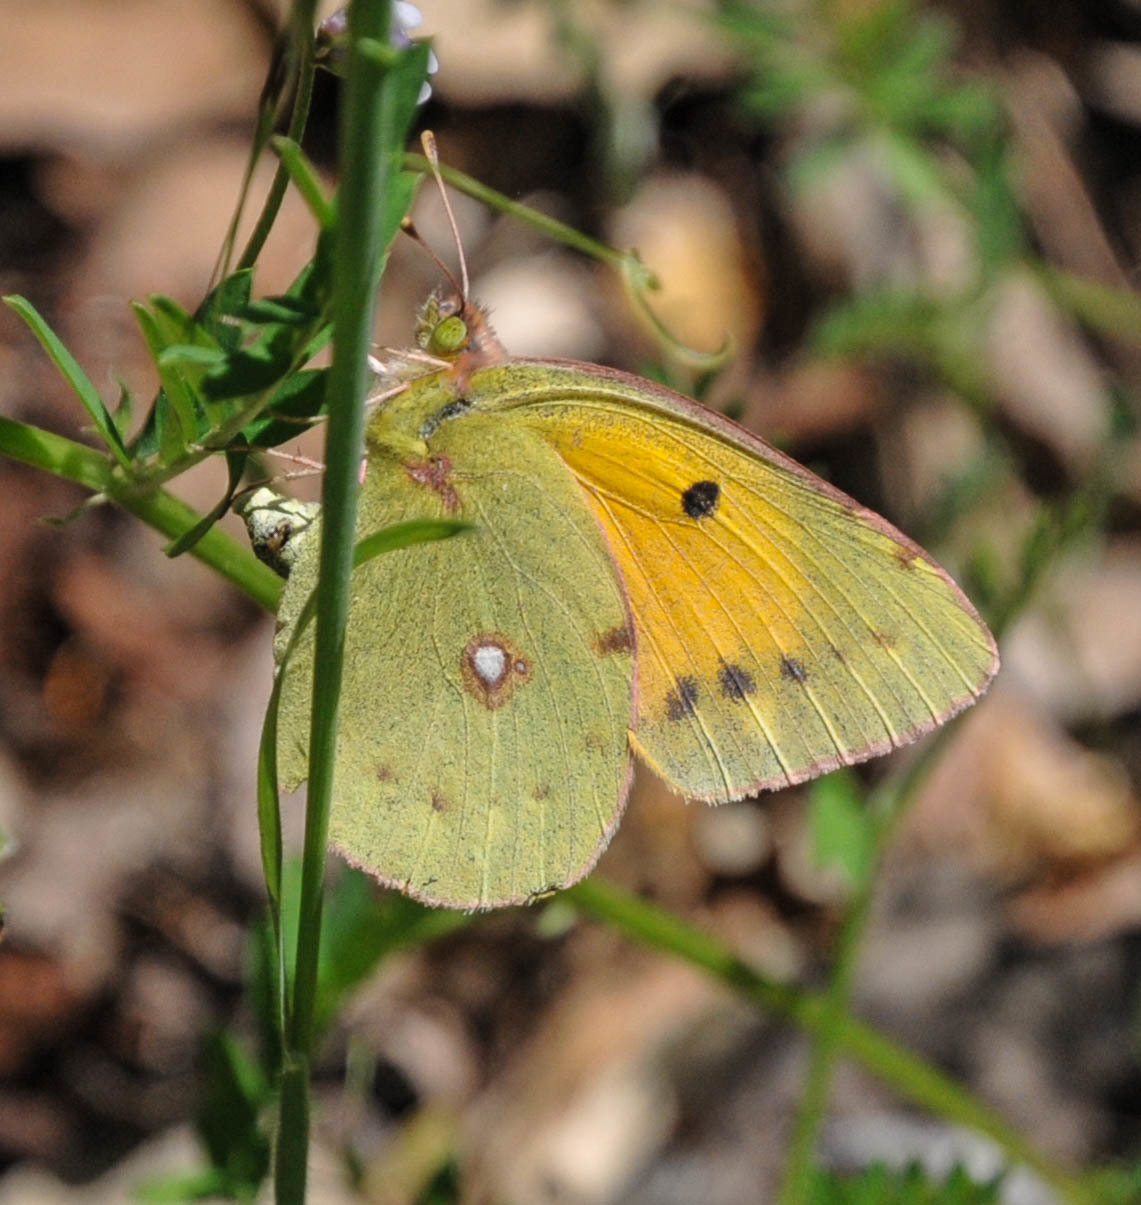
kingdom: Animalia
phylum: Arthropoda
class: Insecta
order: Lepidoptera
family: Pieridae
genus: Colias
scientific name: Colias croceus
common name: Clouded yellow
